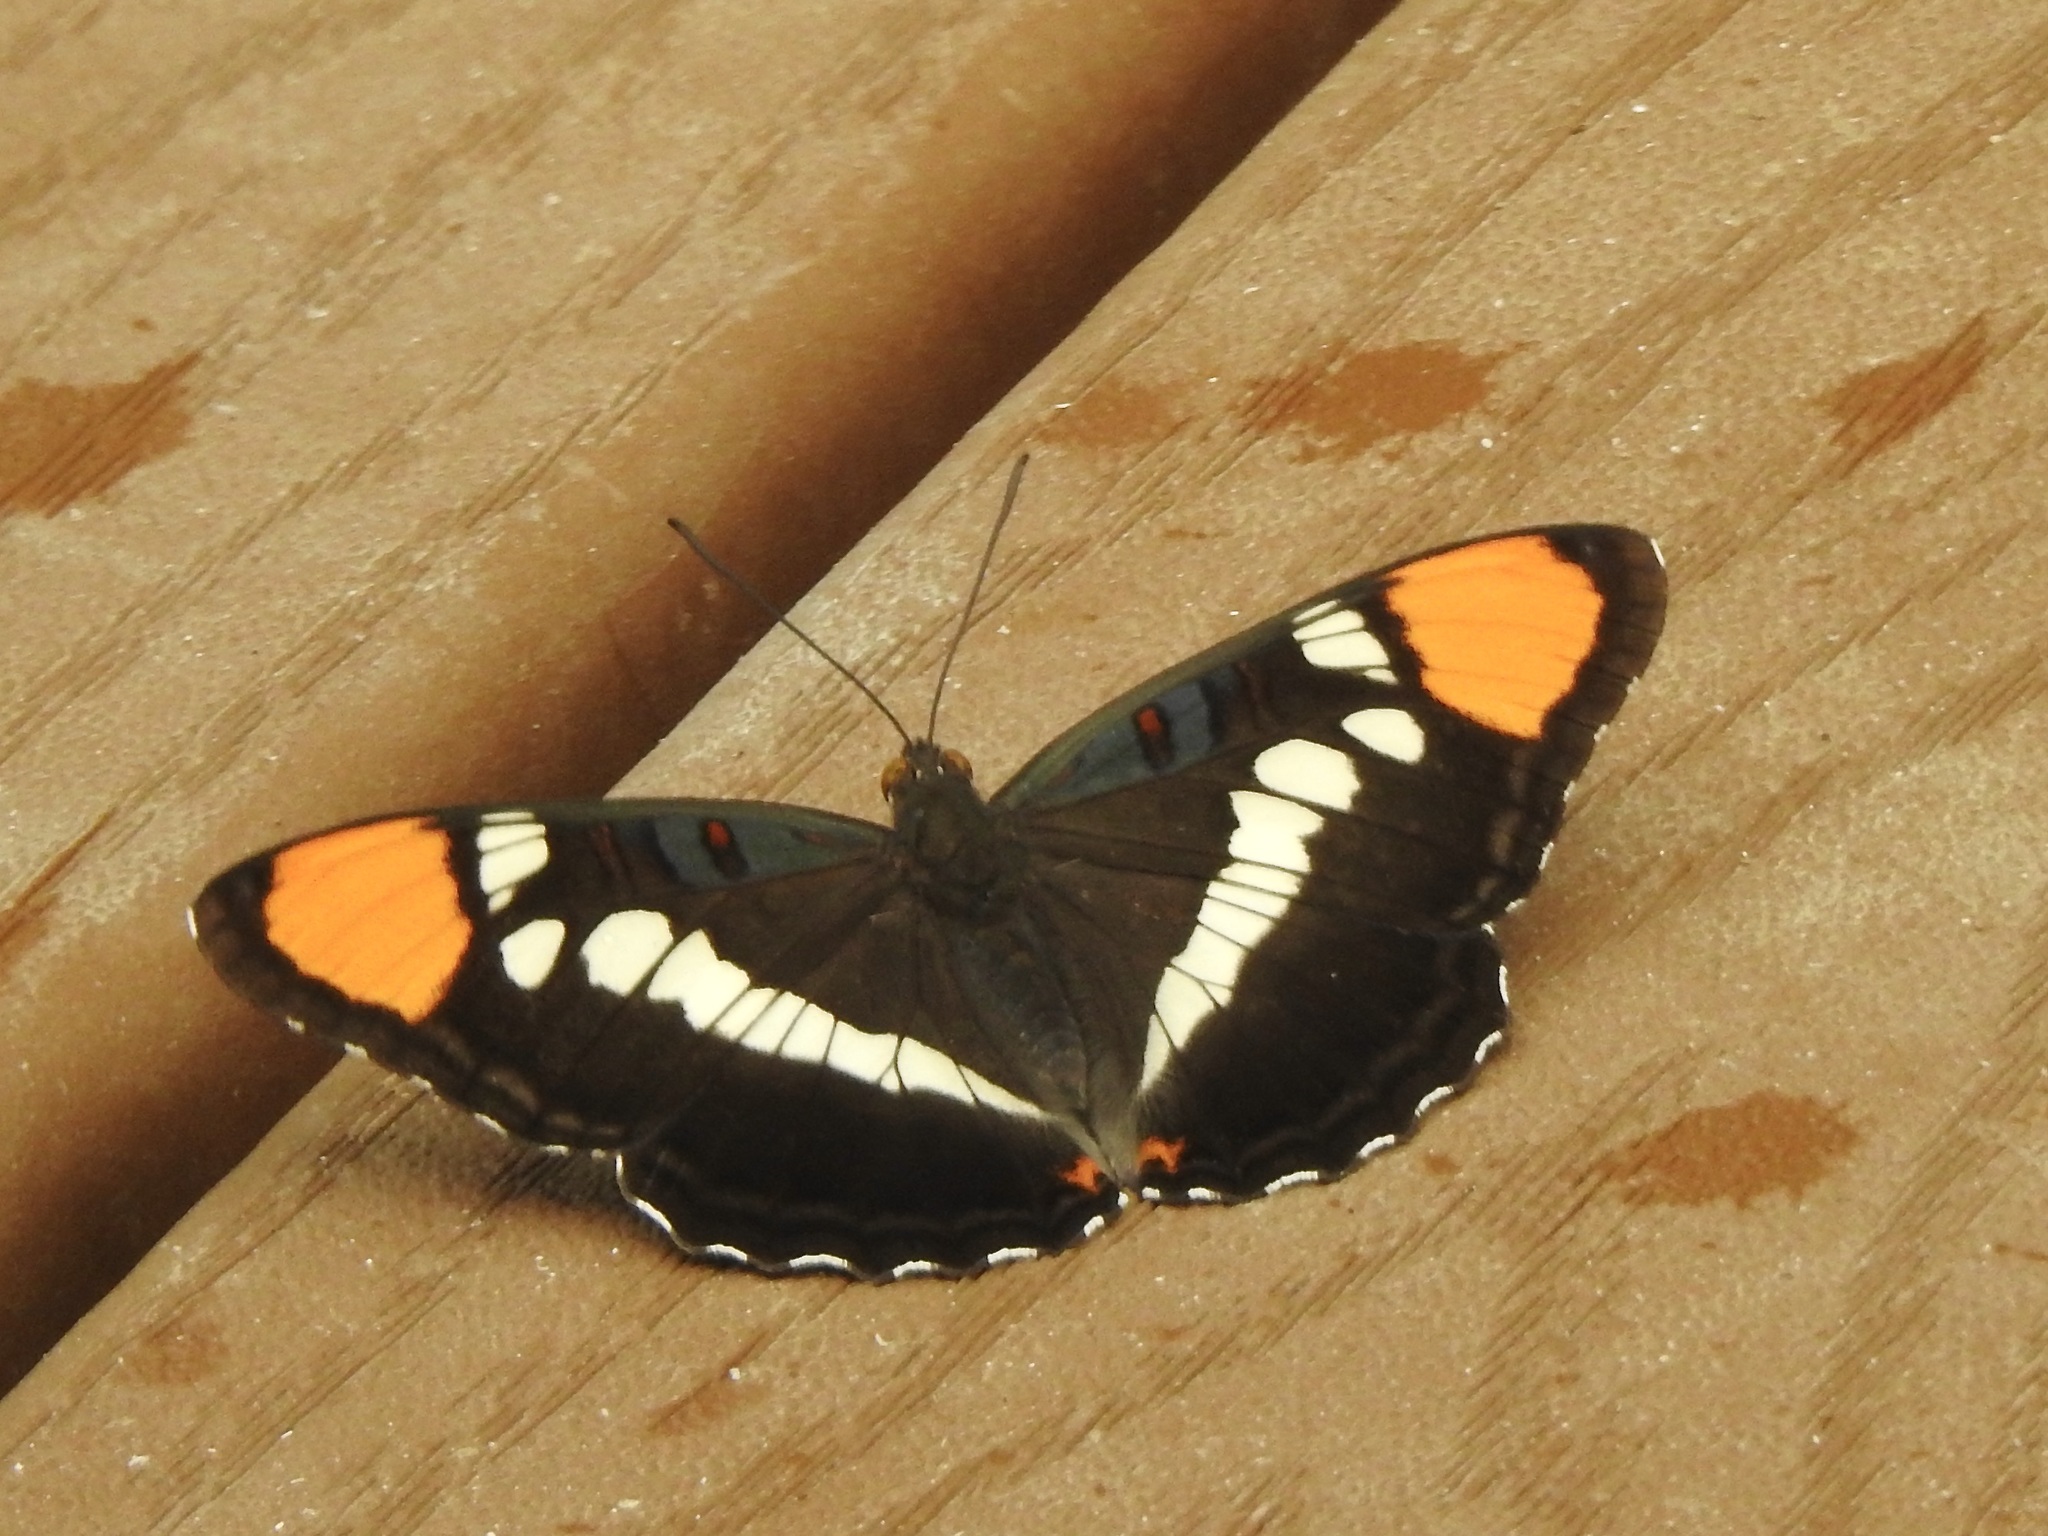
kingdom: Animalia
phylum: Arthropoda
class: Insecta
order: Lepidoptera
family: Nymphalidae
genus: Limenitis
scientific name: Limenitis bredowii
